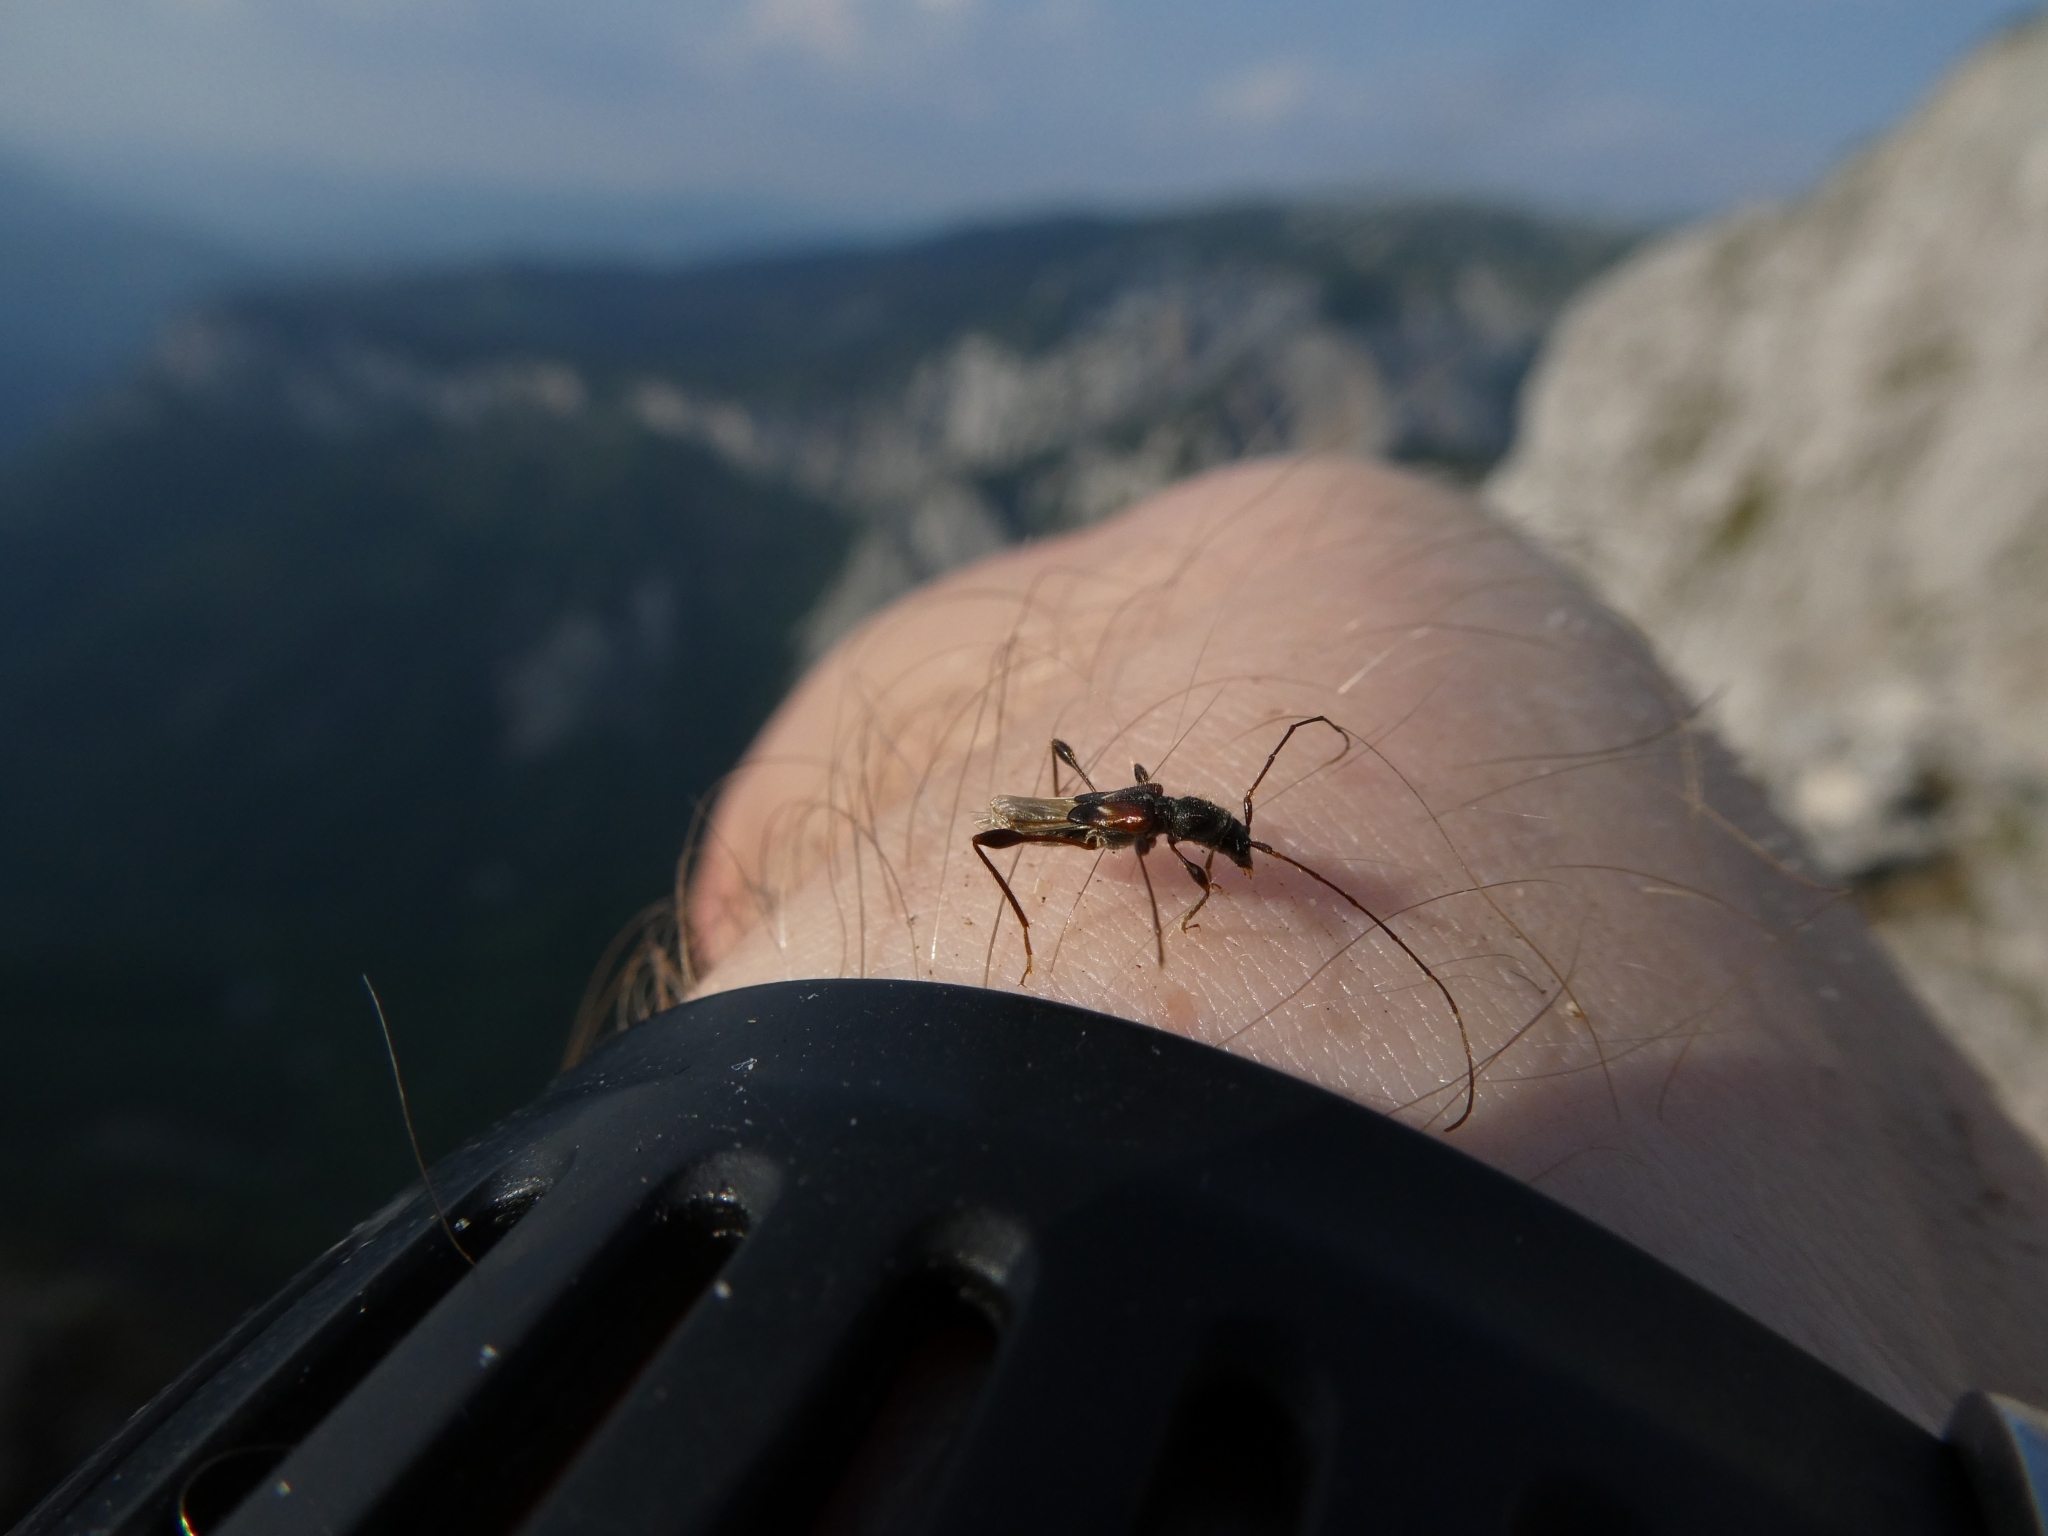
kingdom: Animalia
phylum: Arthropoda
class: Insecta
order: Coleoptera
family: Cerambycidae
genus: Molorchus
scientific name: Molorchus minor
